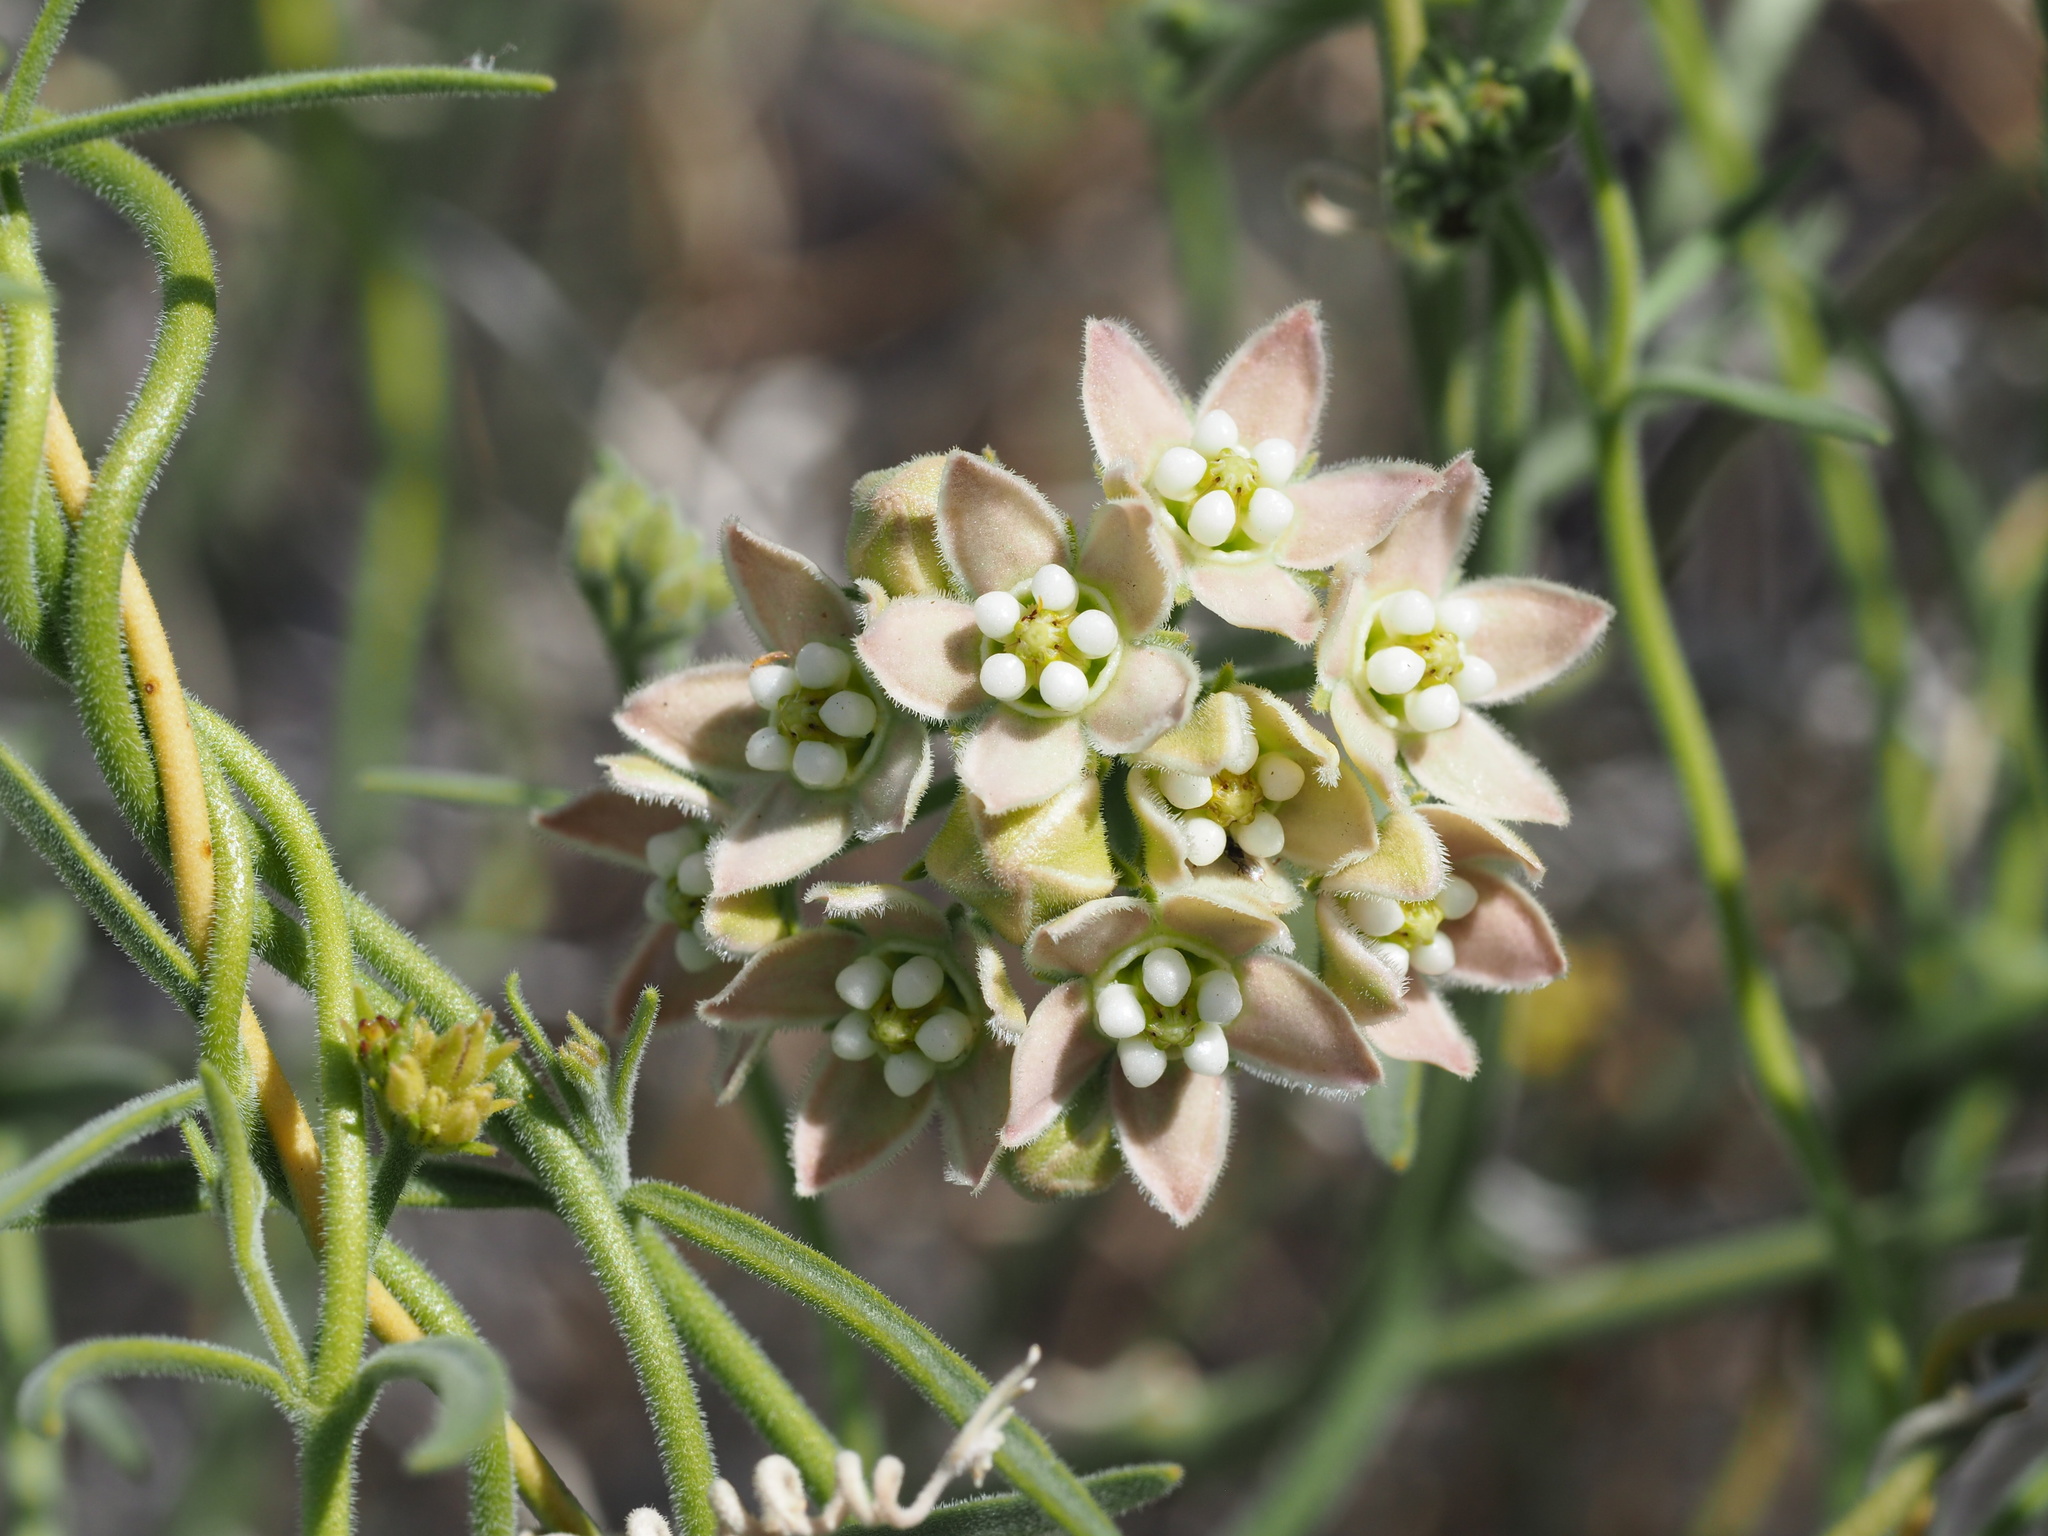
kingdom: Plantae
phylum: Tracheophyta
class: Magnoliopsida
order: Gentianales
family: Apocynaceae
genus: Funastrum
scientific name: Funastrum hirtellum
